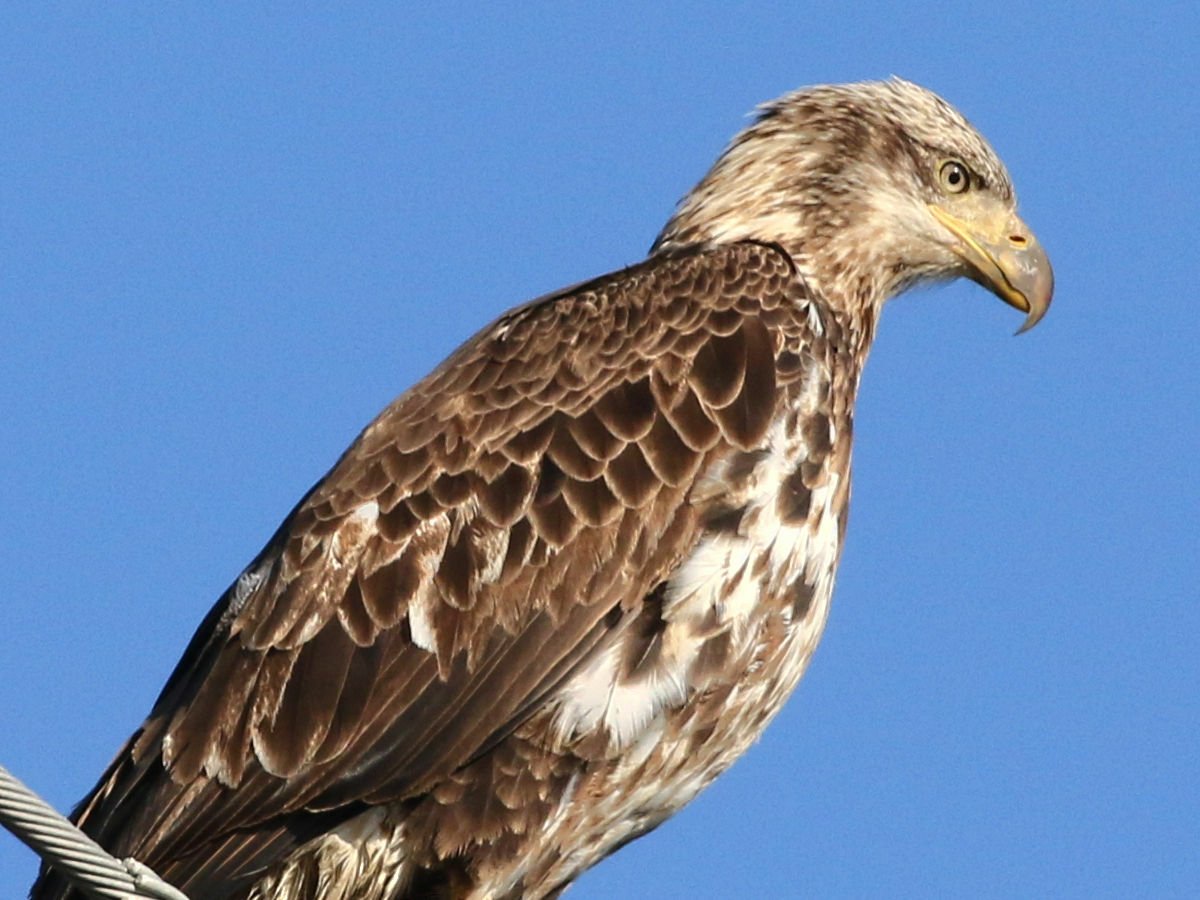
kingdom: Animalia
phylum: Chordata
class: Aves
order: Accipitriformes
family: Accipitridae
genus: Haliaeetus
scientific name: Haliaeetus leucocephalus
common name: Bald eagle
